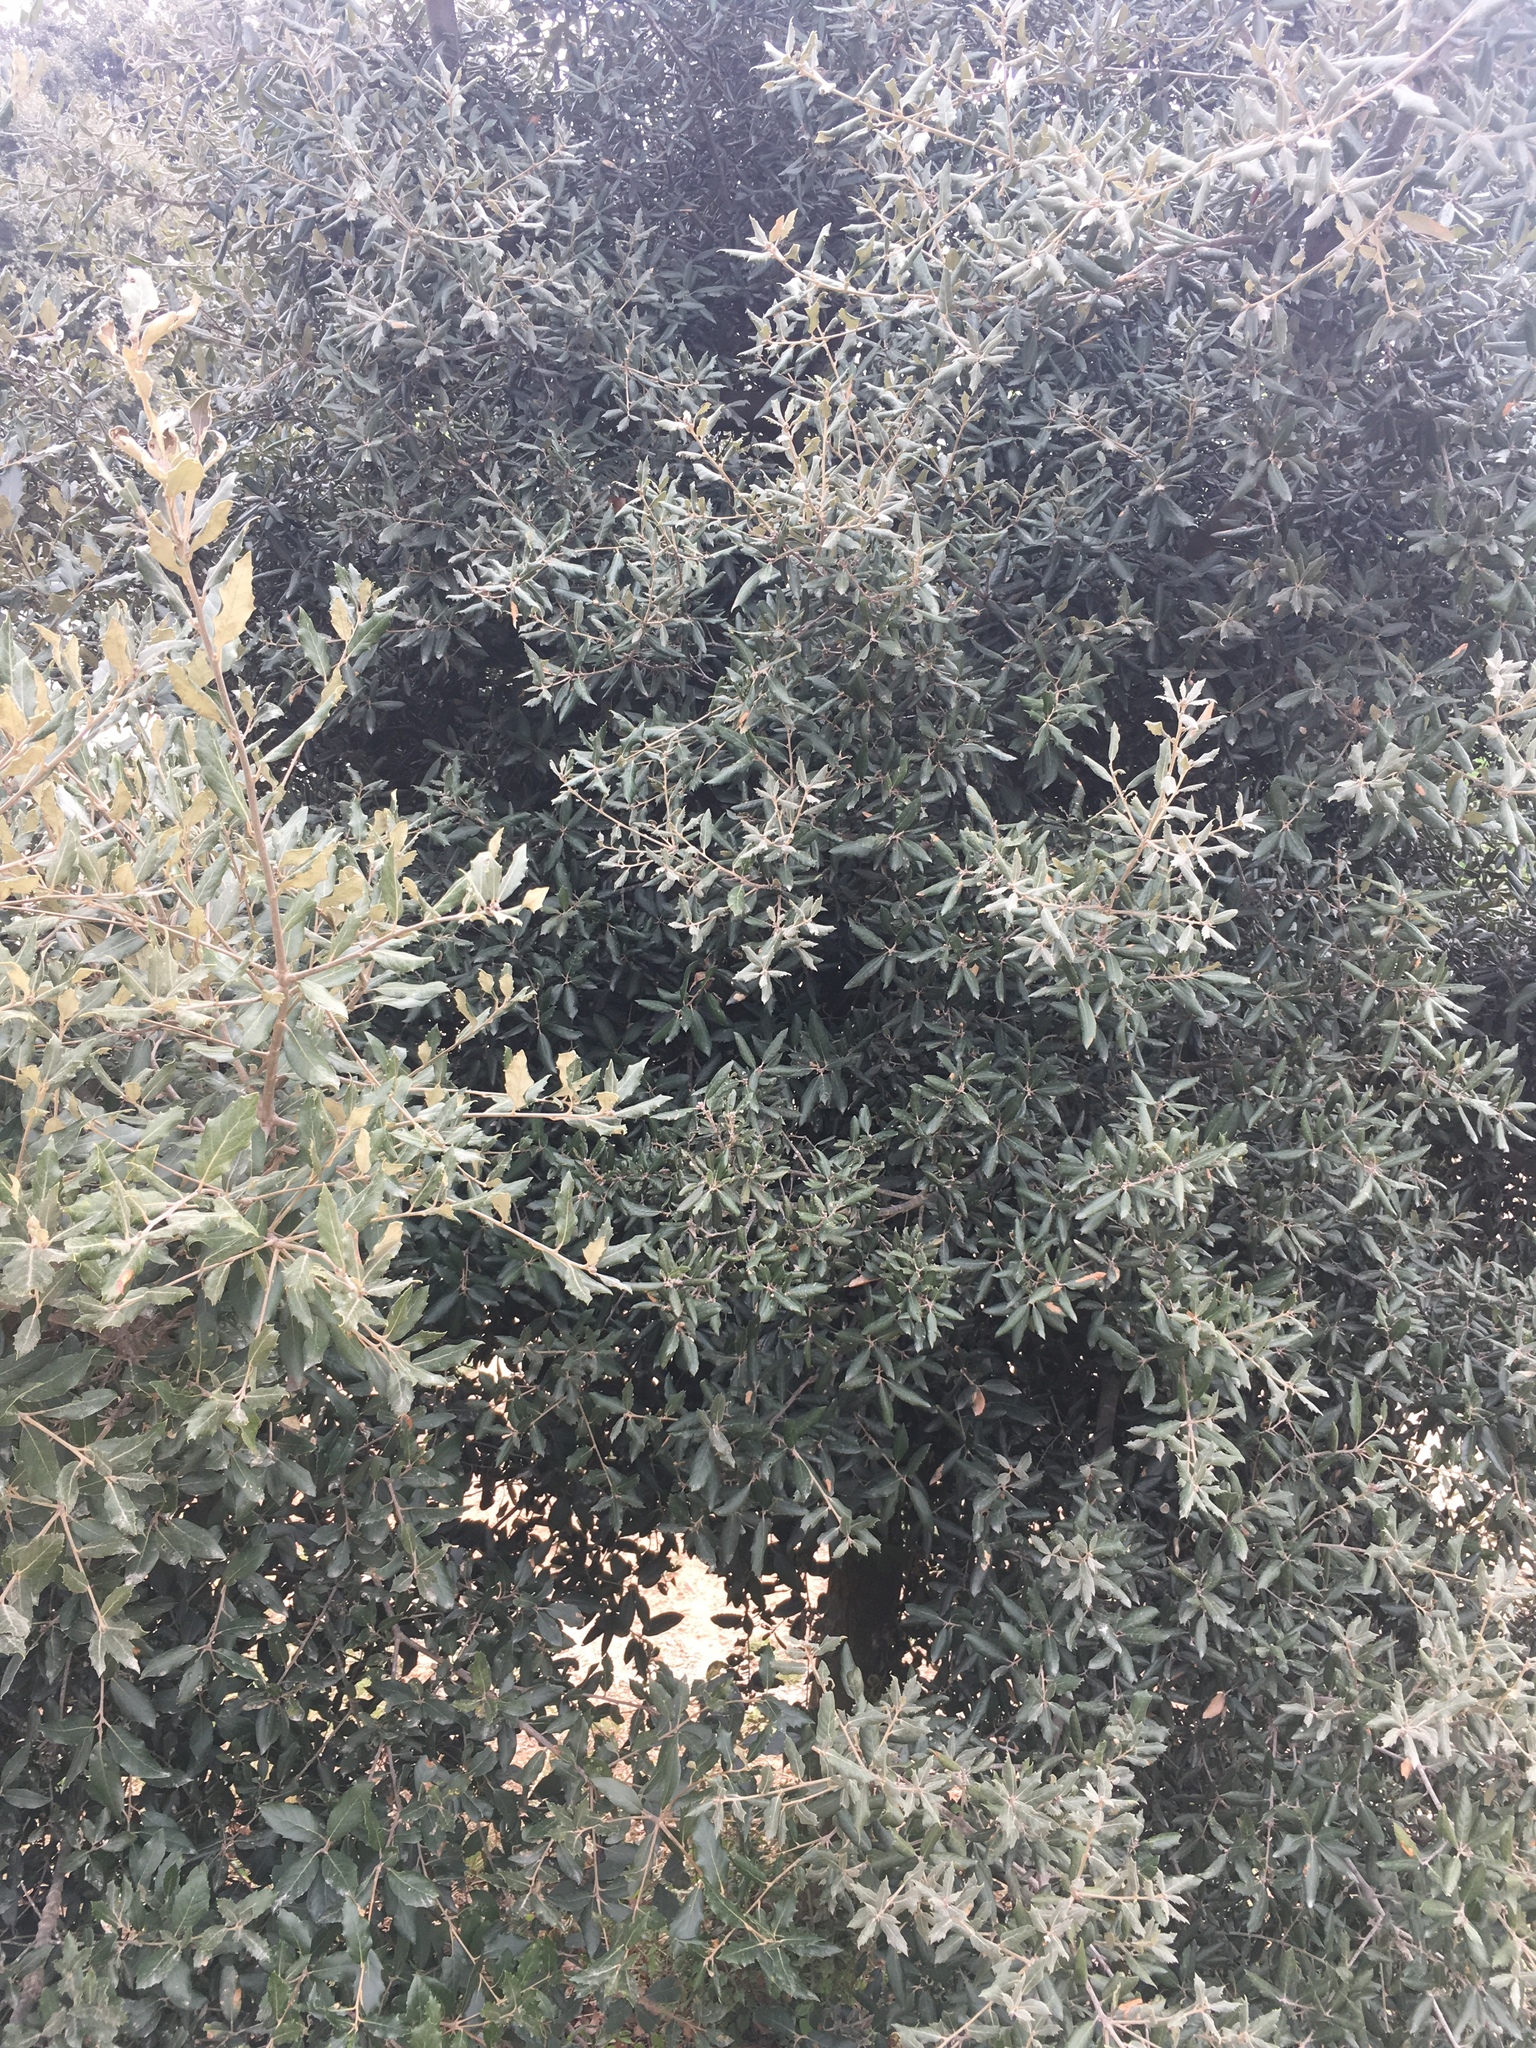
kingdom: Plantae
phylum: Tracheophyta
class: Magnoliopsida
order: Fagales
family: Fagaceae
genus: Quercus
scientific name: Quercus ilex
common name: Evergreen oak
